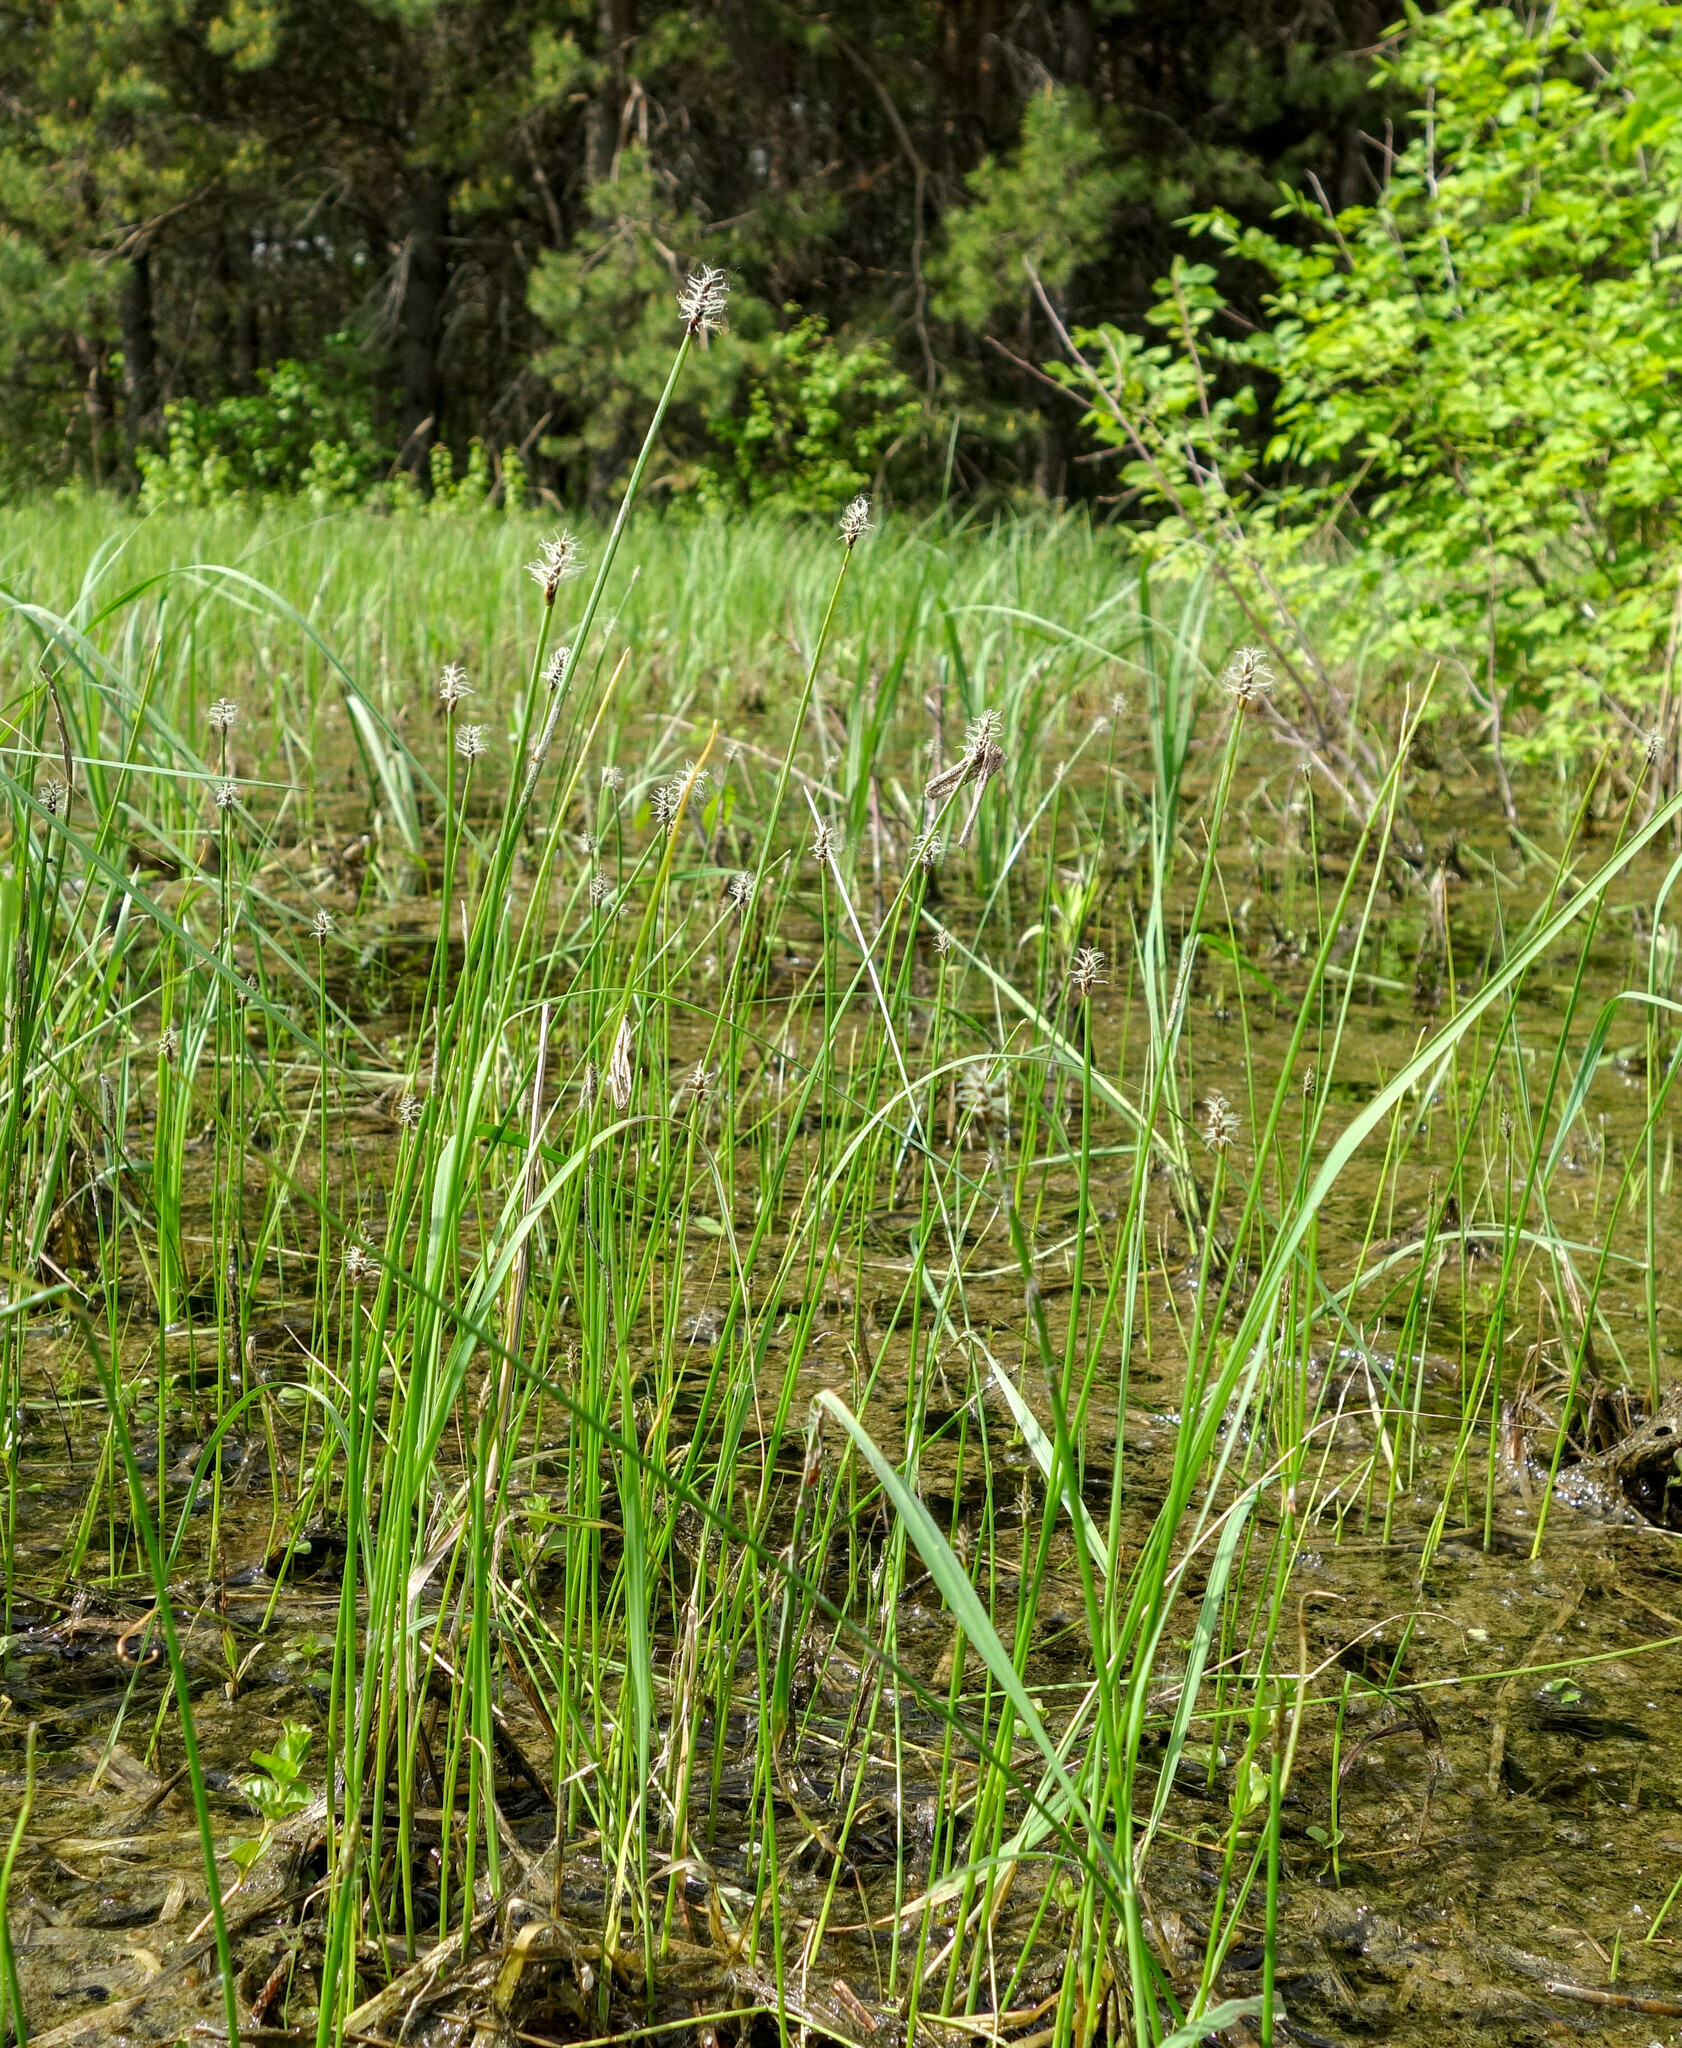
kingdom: Plantae
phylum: Tracheophyta
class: Liliopsida
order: Poales
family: Cyperaceae
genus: Eleocharis
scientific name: Eleocharis palustris
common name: Common spike-rush
